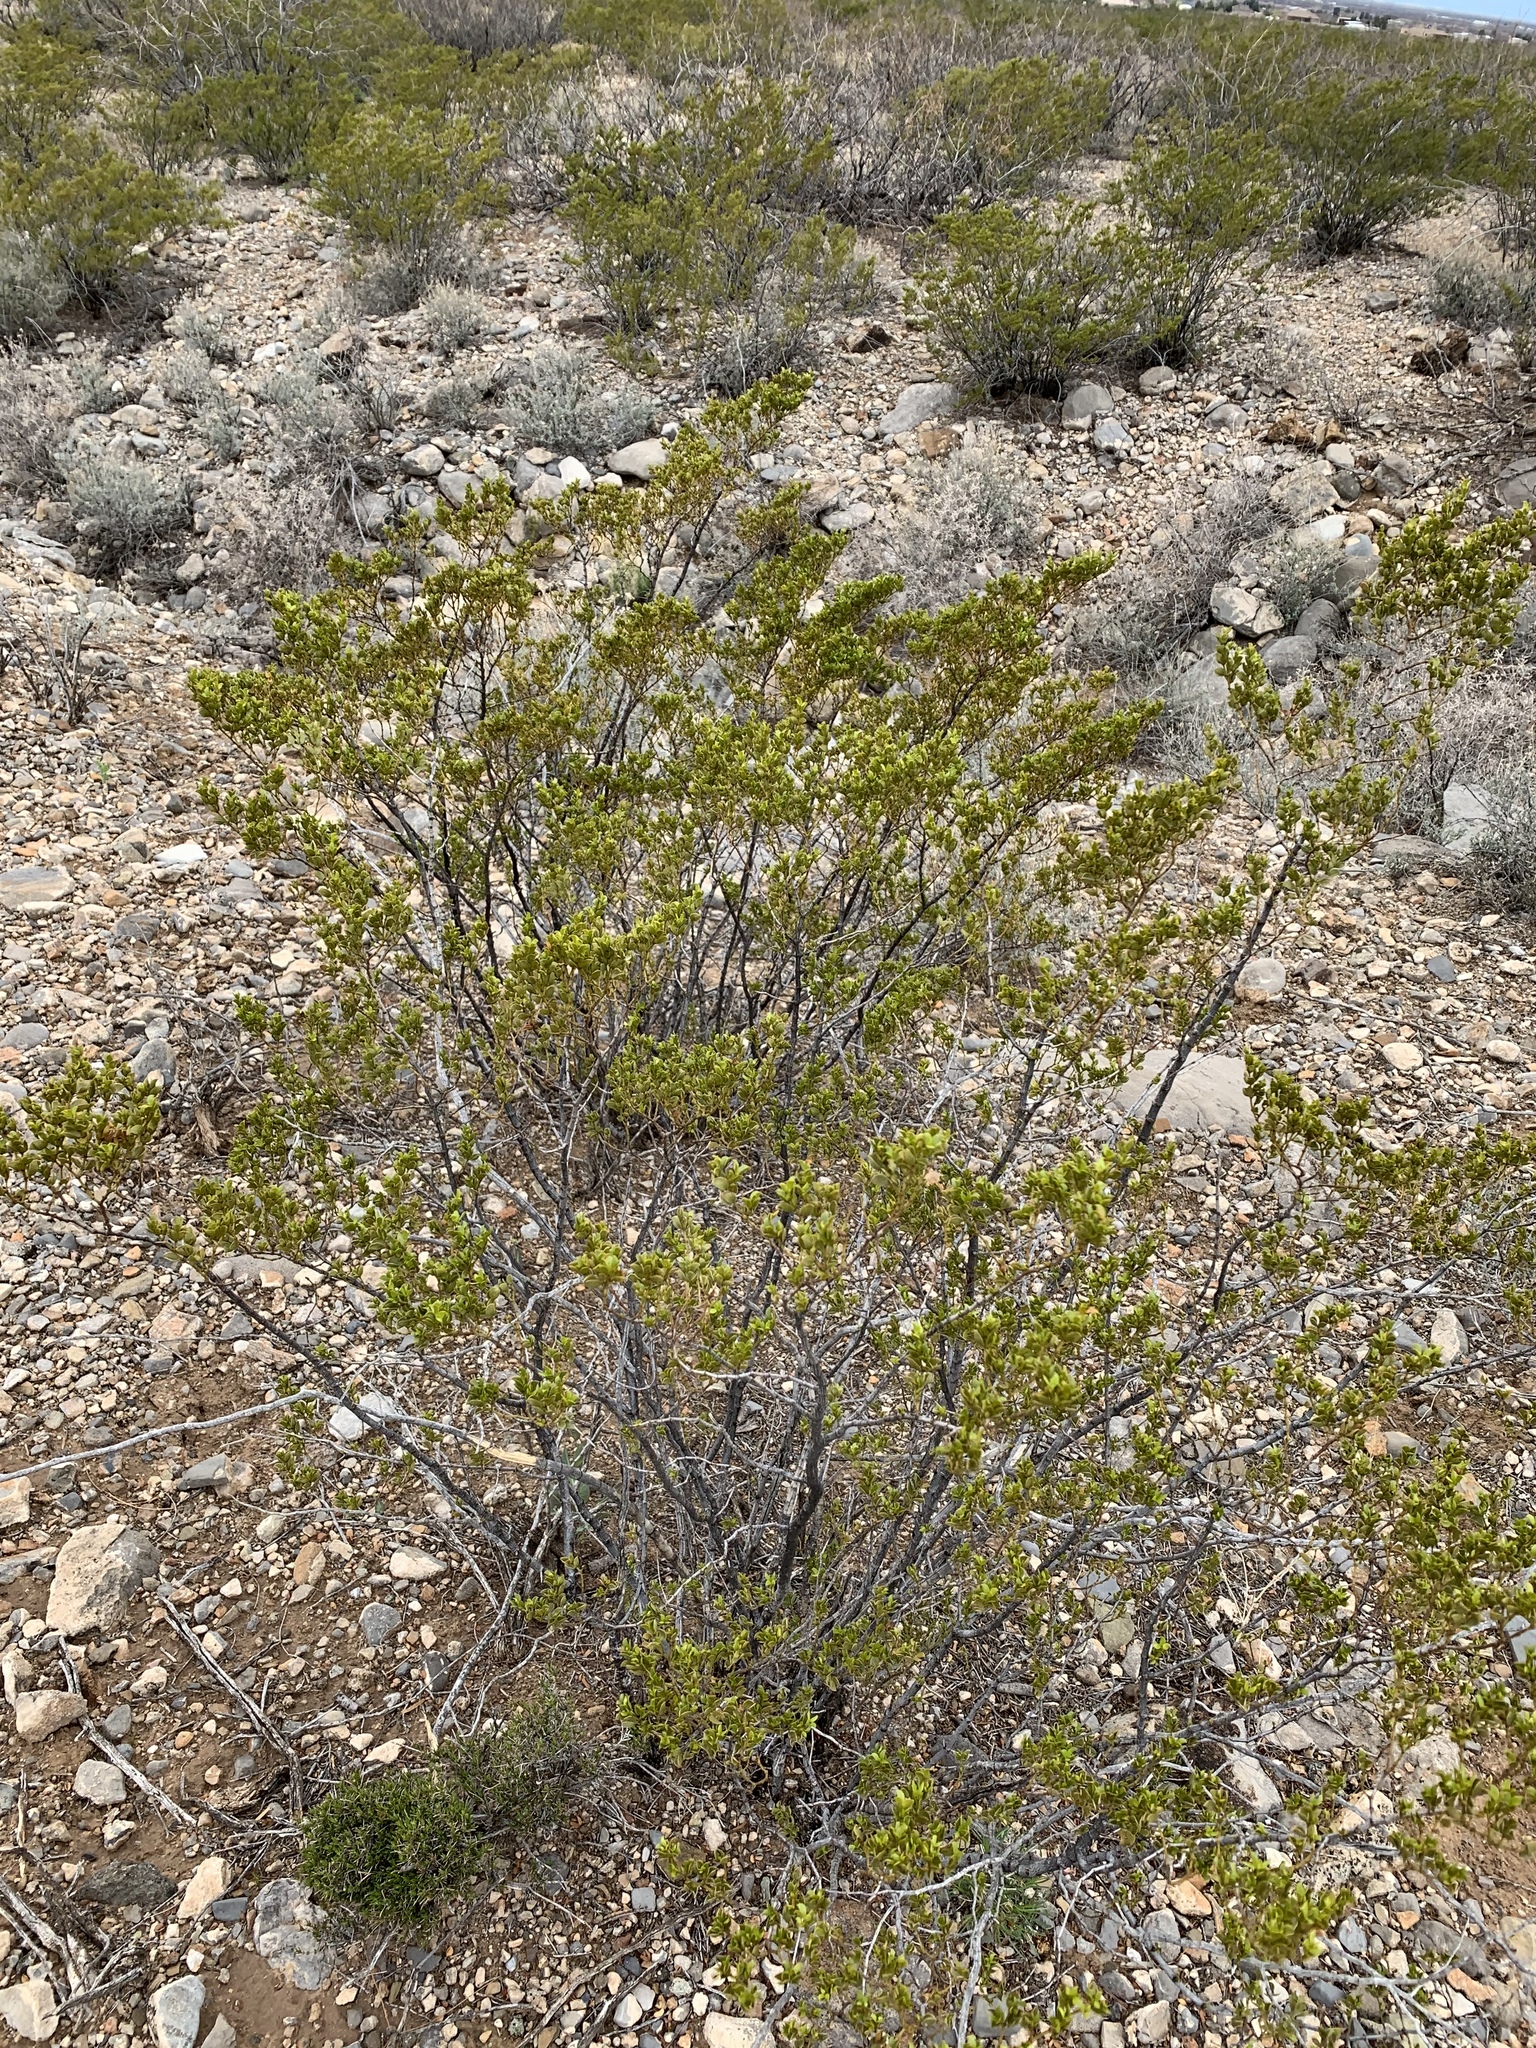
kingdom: Plantae
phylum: Tracheophyta
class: Magnoliopsida
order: Zygophyllales
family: Zygophyllaceae
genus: Larrea
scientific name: Larrea tridentata
